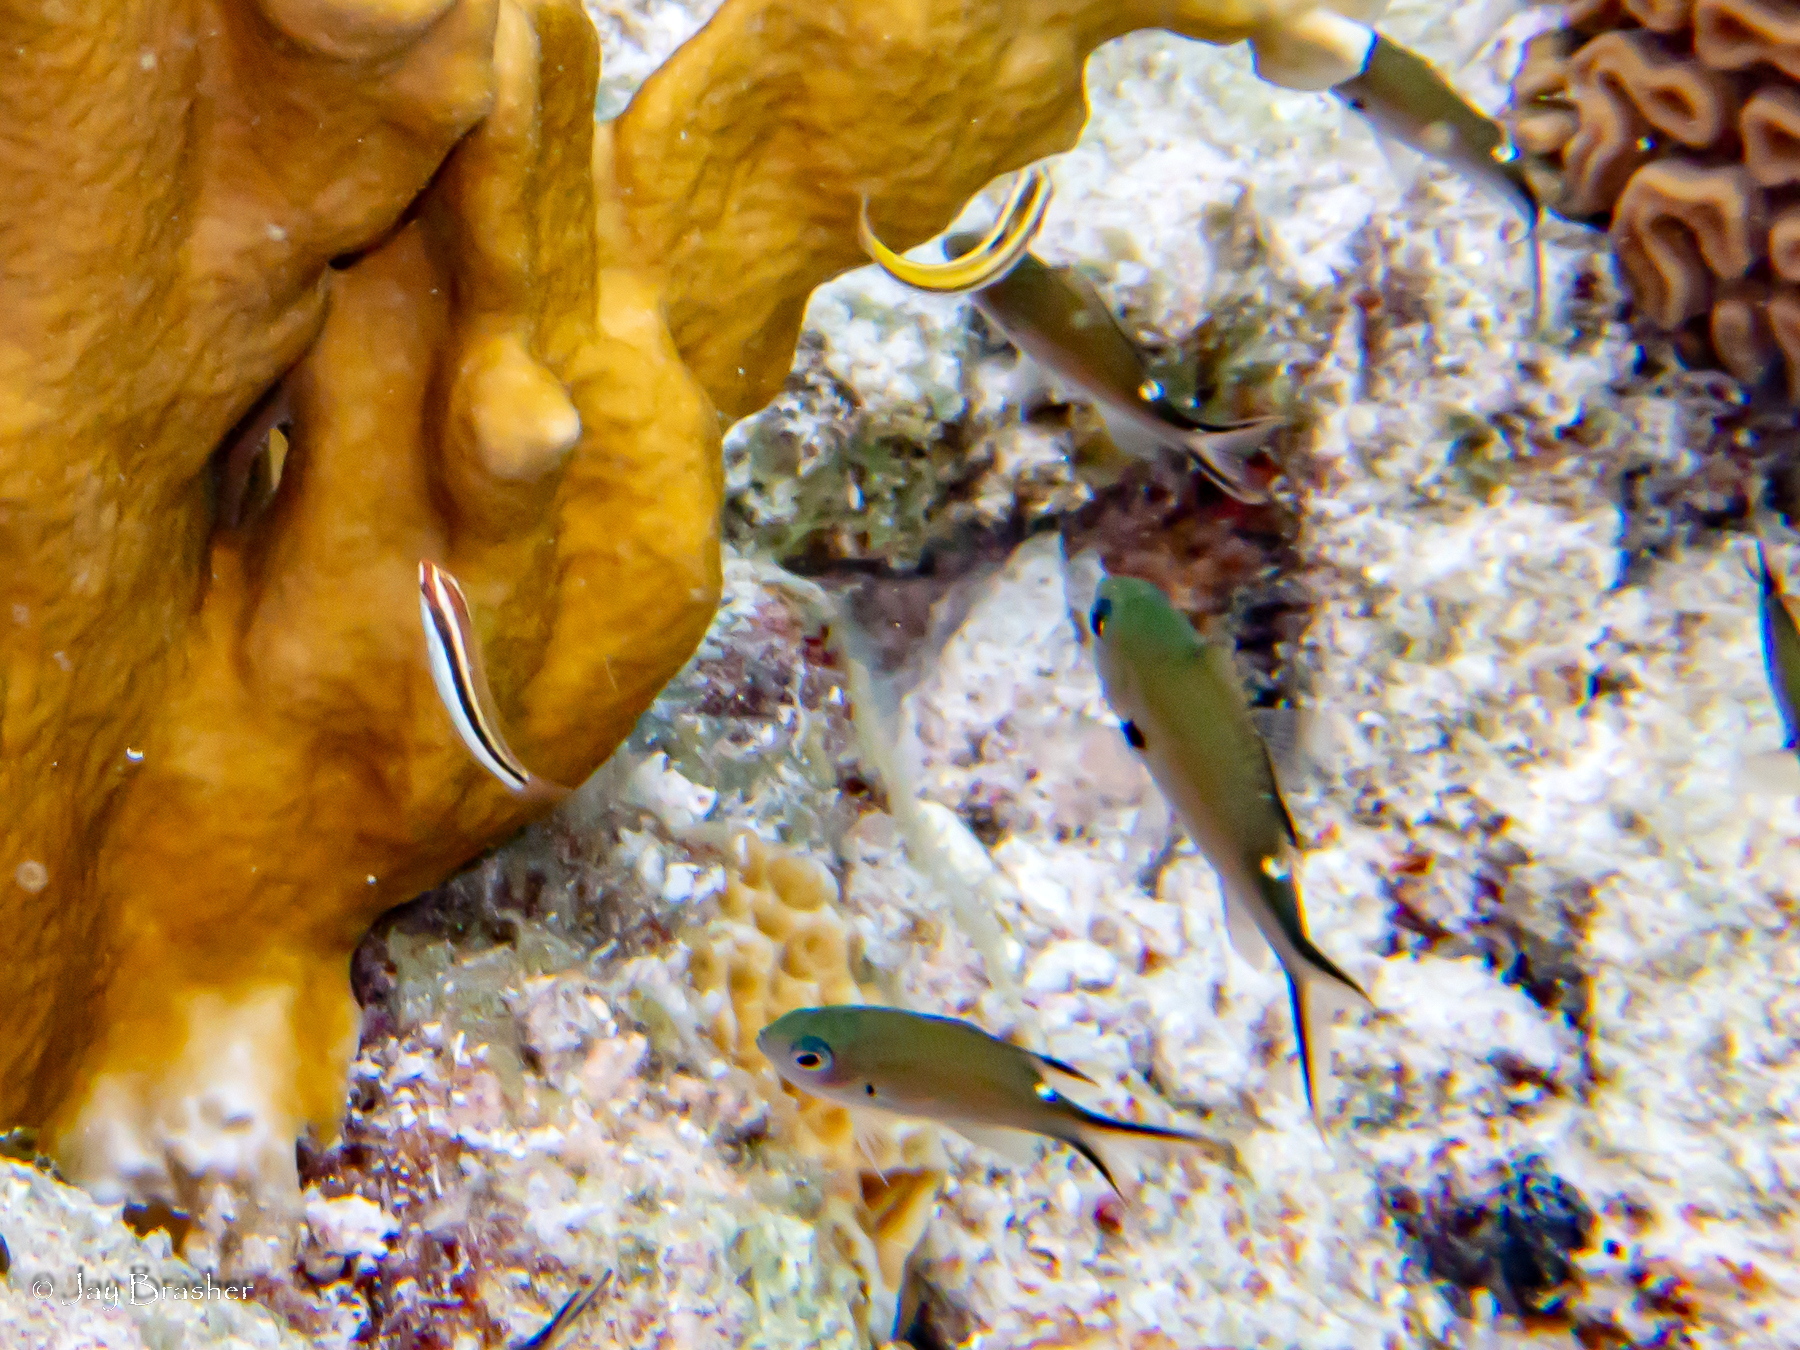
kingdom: Animalia
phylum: Chordata
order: Perciformes
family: Labridae
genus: Halichoeres
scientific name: Halichoeres maculipinna
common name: Clown wrasse
